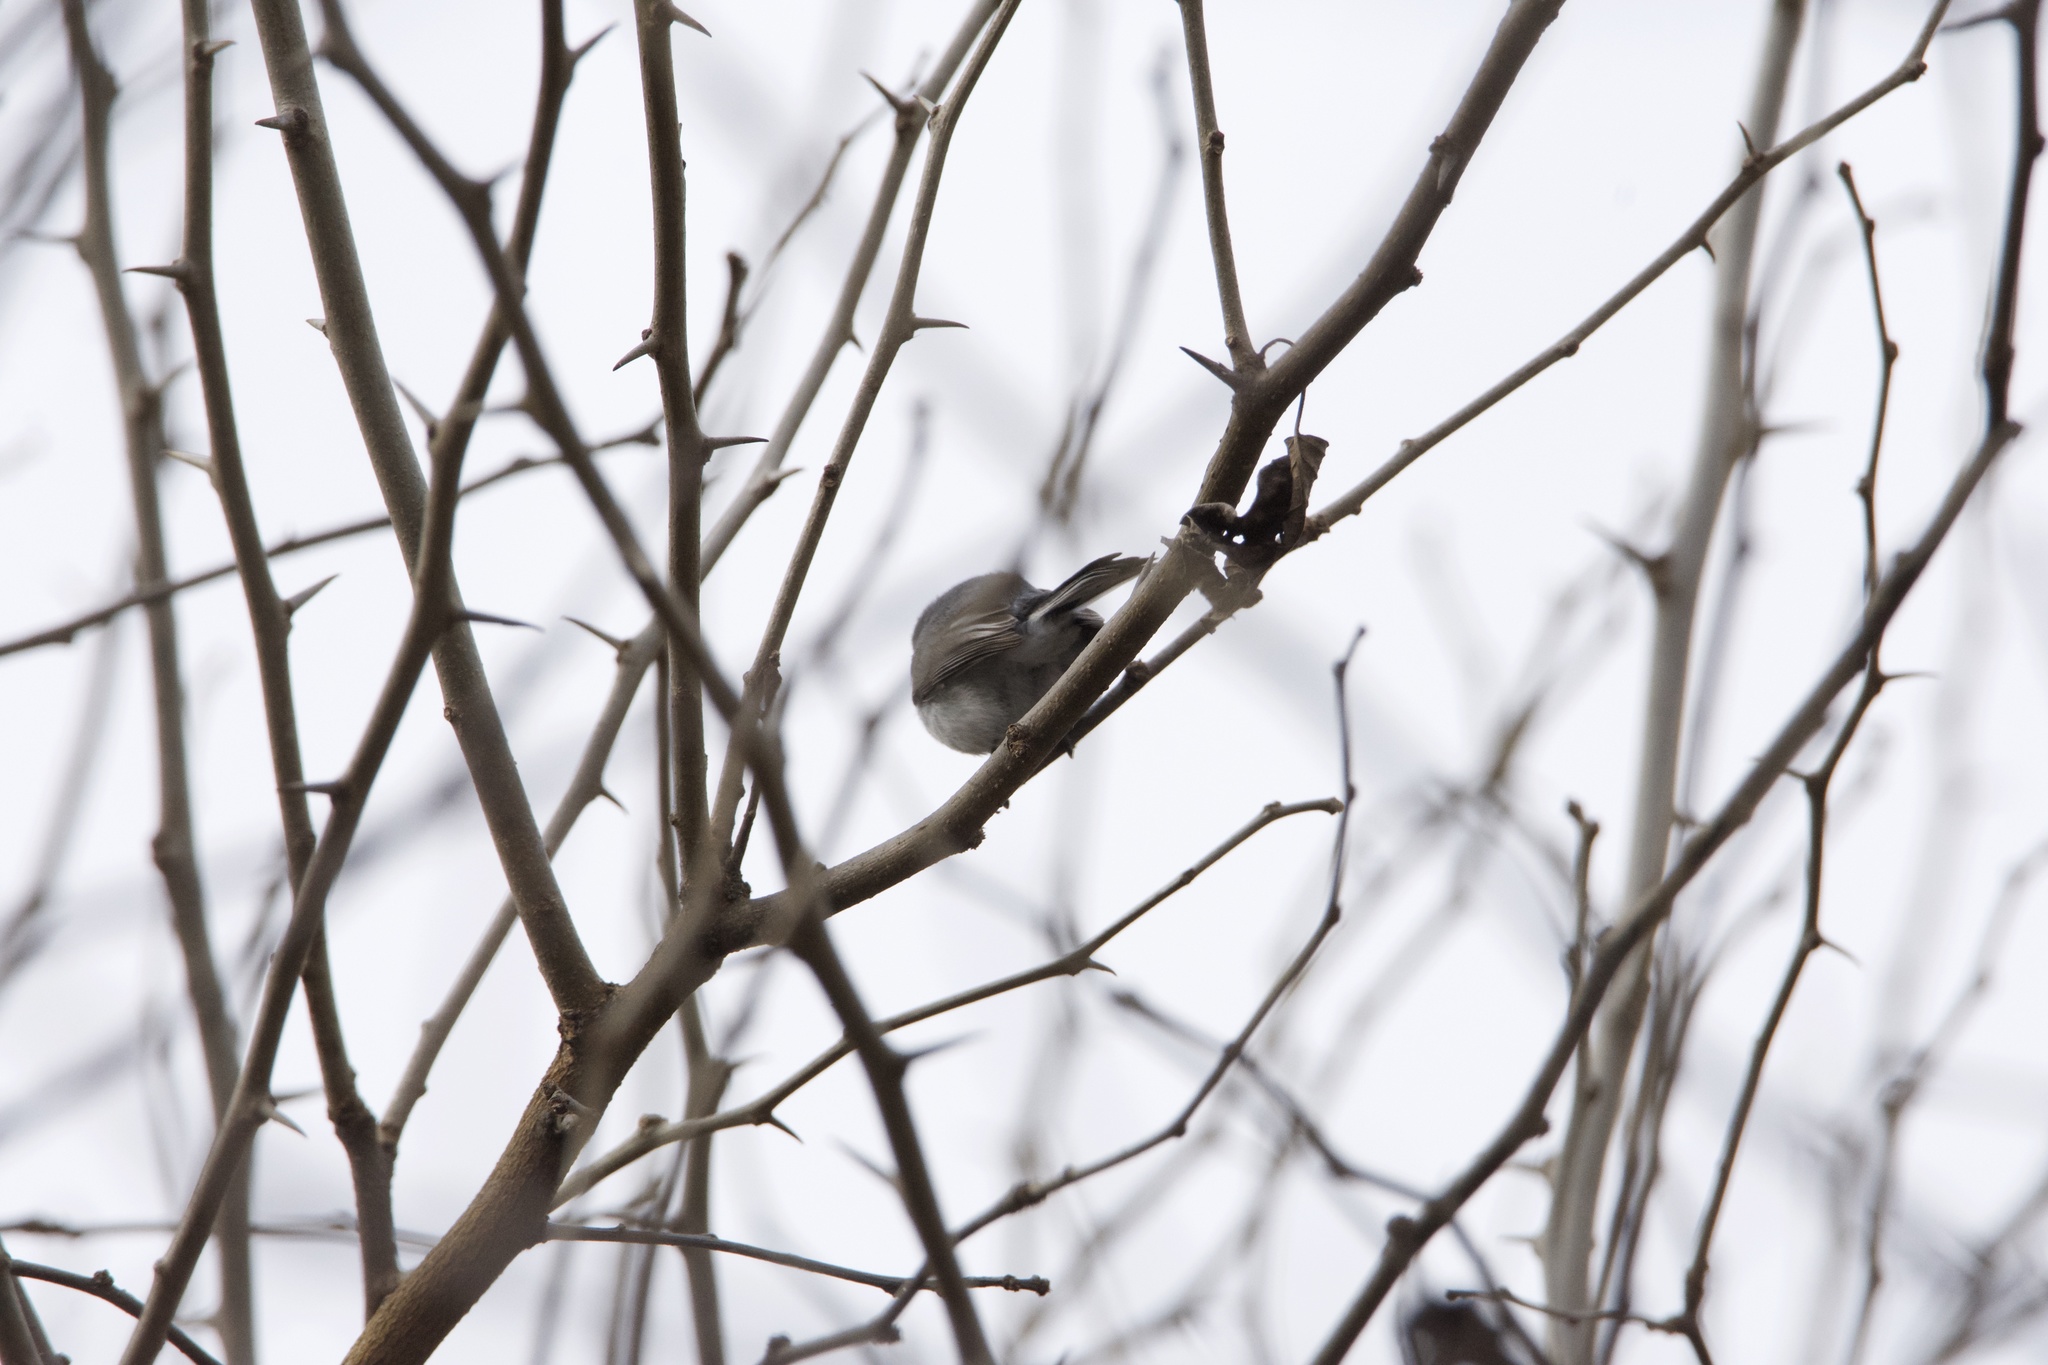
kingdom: Animalia
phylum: Chordata
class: Aves
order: Passeriformes
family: Polioptilidae
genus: Polioptila
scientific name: Polioptila caerulea
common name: Blue-gray gnatcatcher
